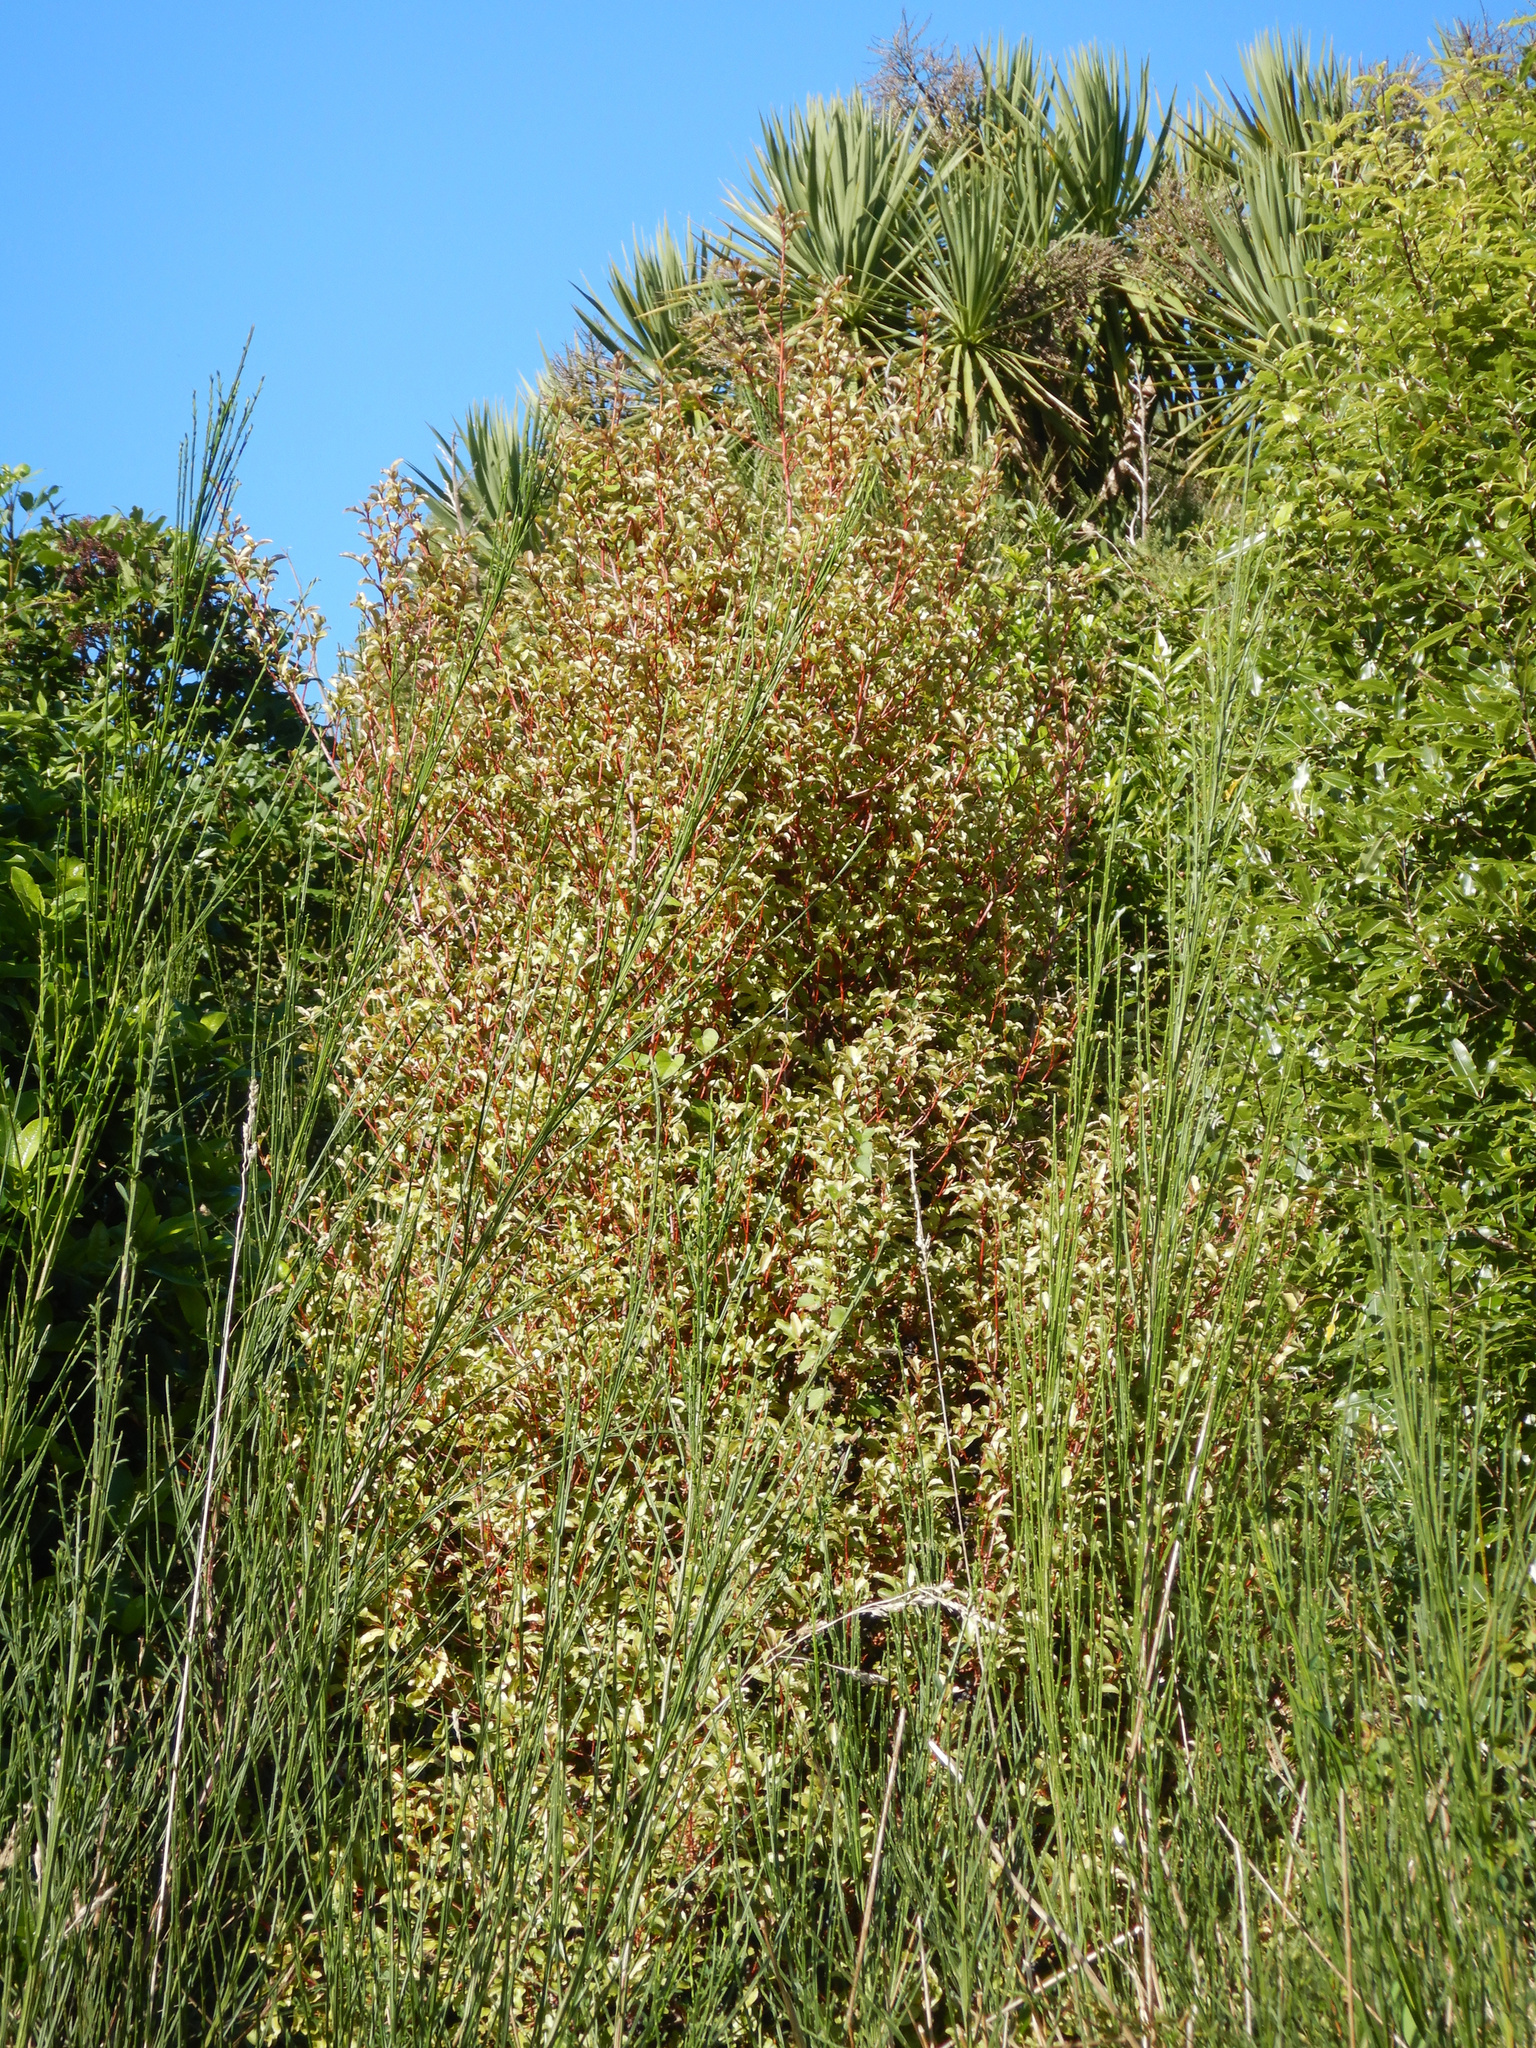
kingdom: Plantae
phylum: Tracheophyta
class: Magnoliopsida
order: Ericales
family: Primulaceae
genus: Myrsine
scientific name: Myrsine australis
